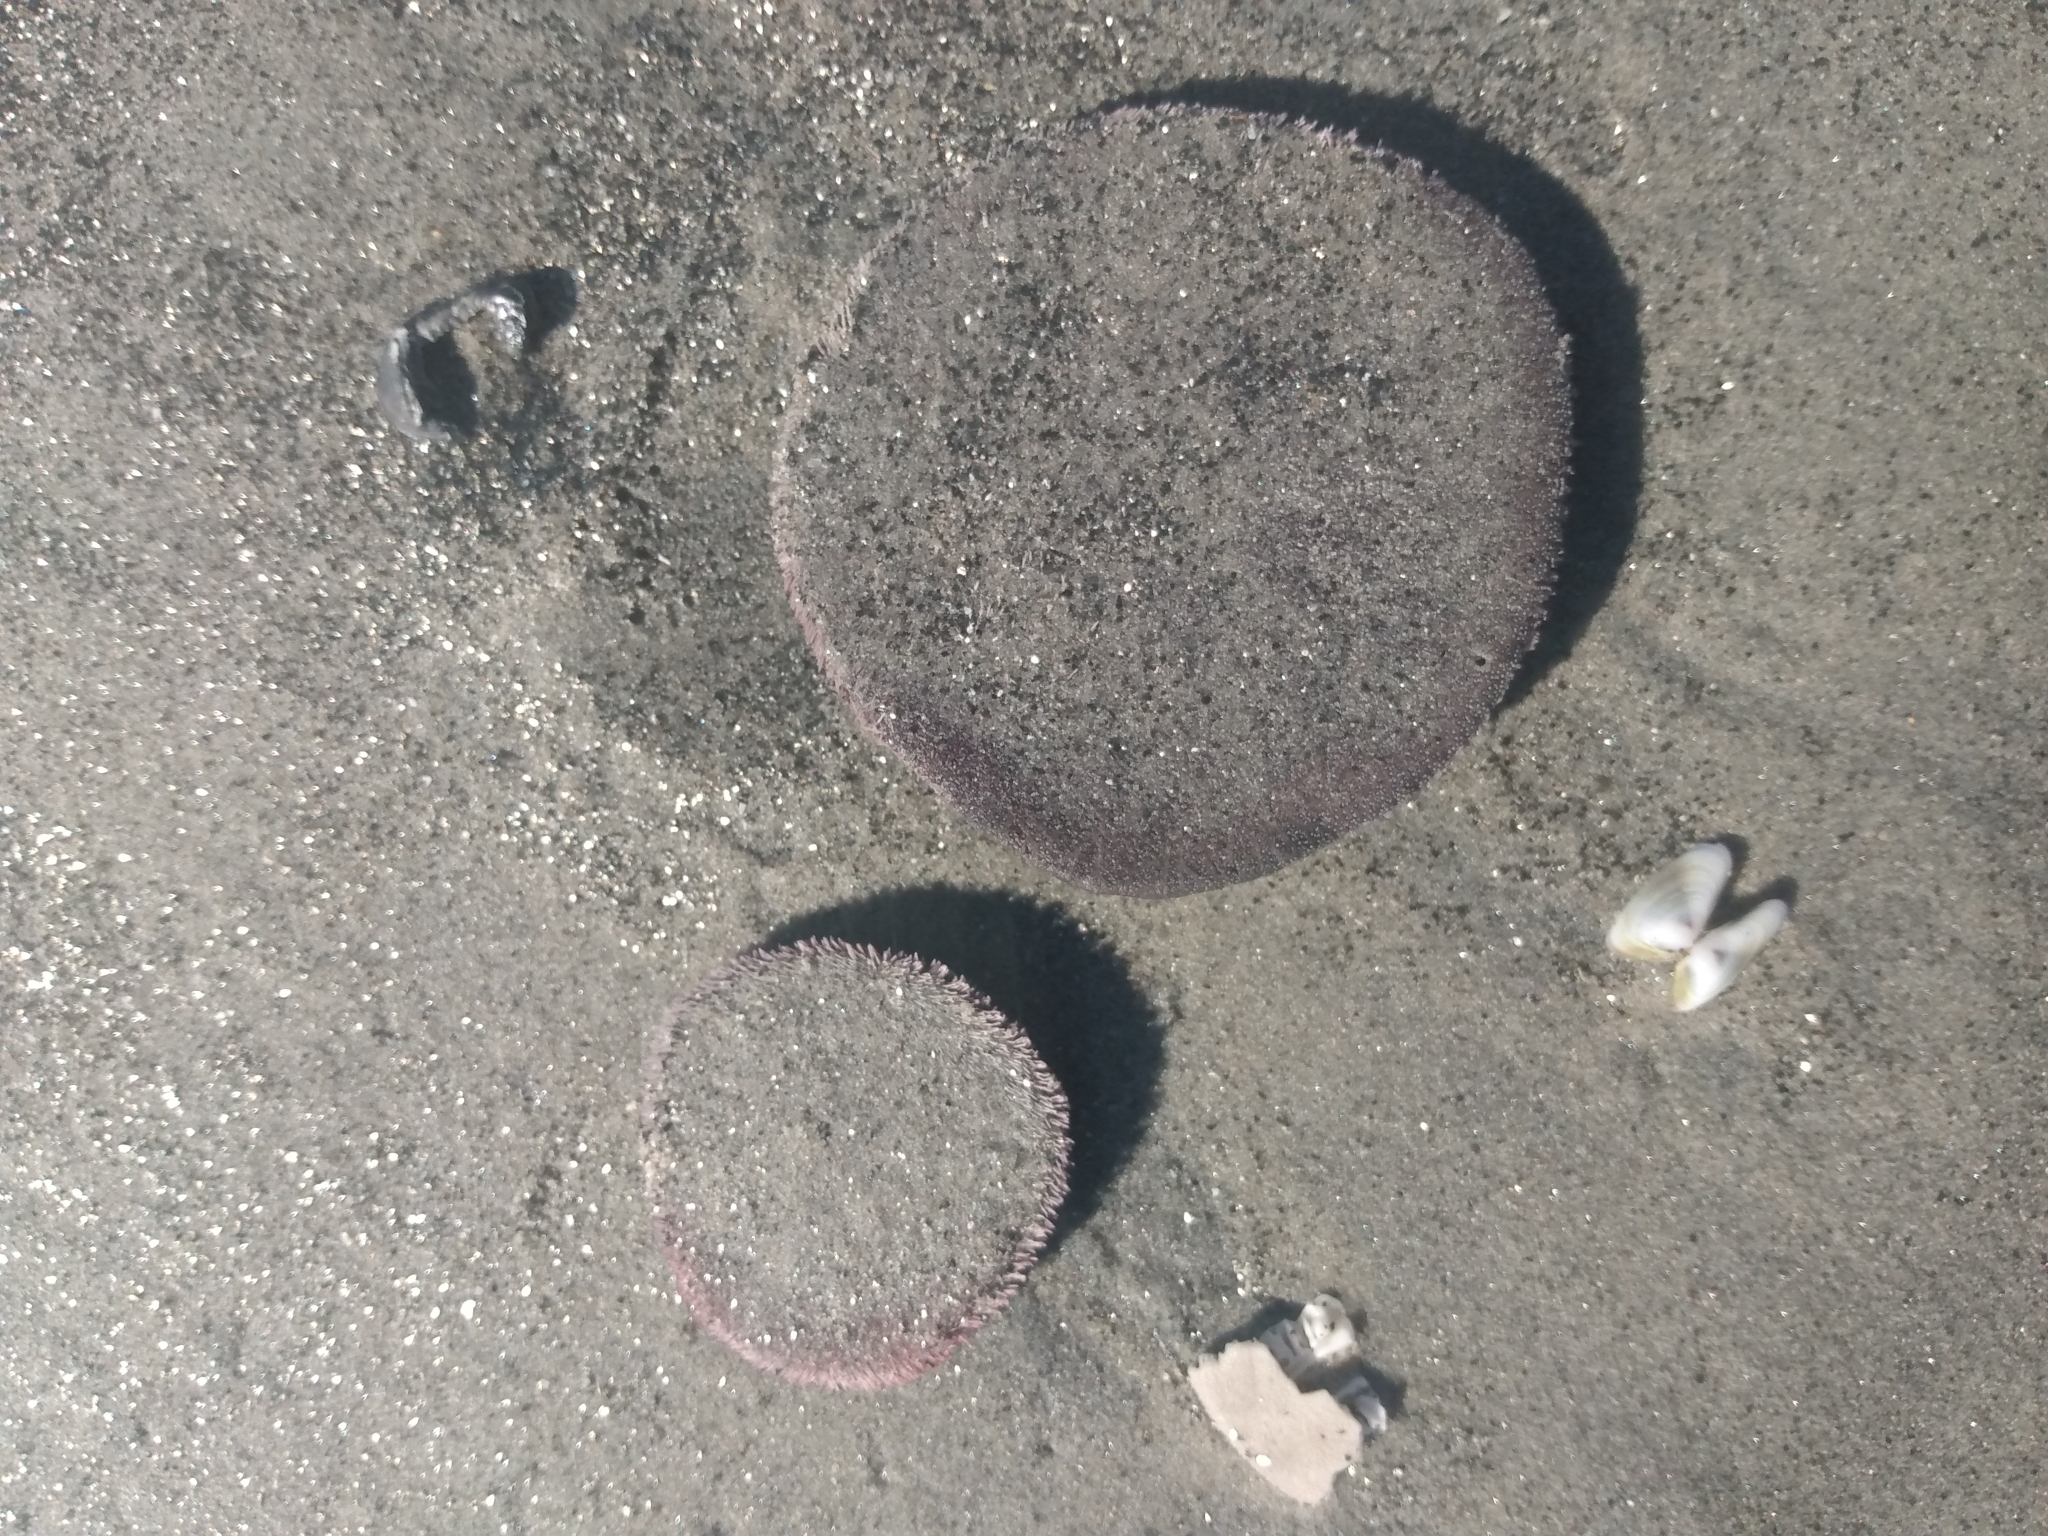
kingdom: Animalia
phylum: Echinodermata
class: Echinoidea
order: Echinolampadacea
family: Dendrasteridae
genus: Dendraster
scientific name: Dendraster excentricus
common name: Eccentric sand dollar sea urchin
